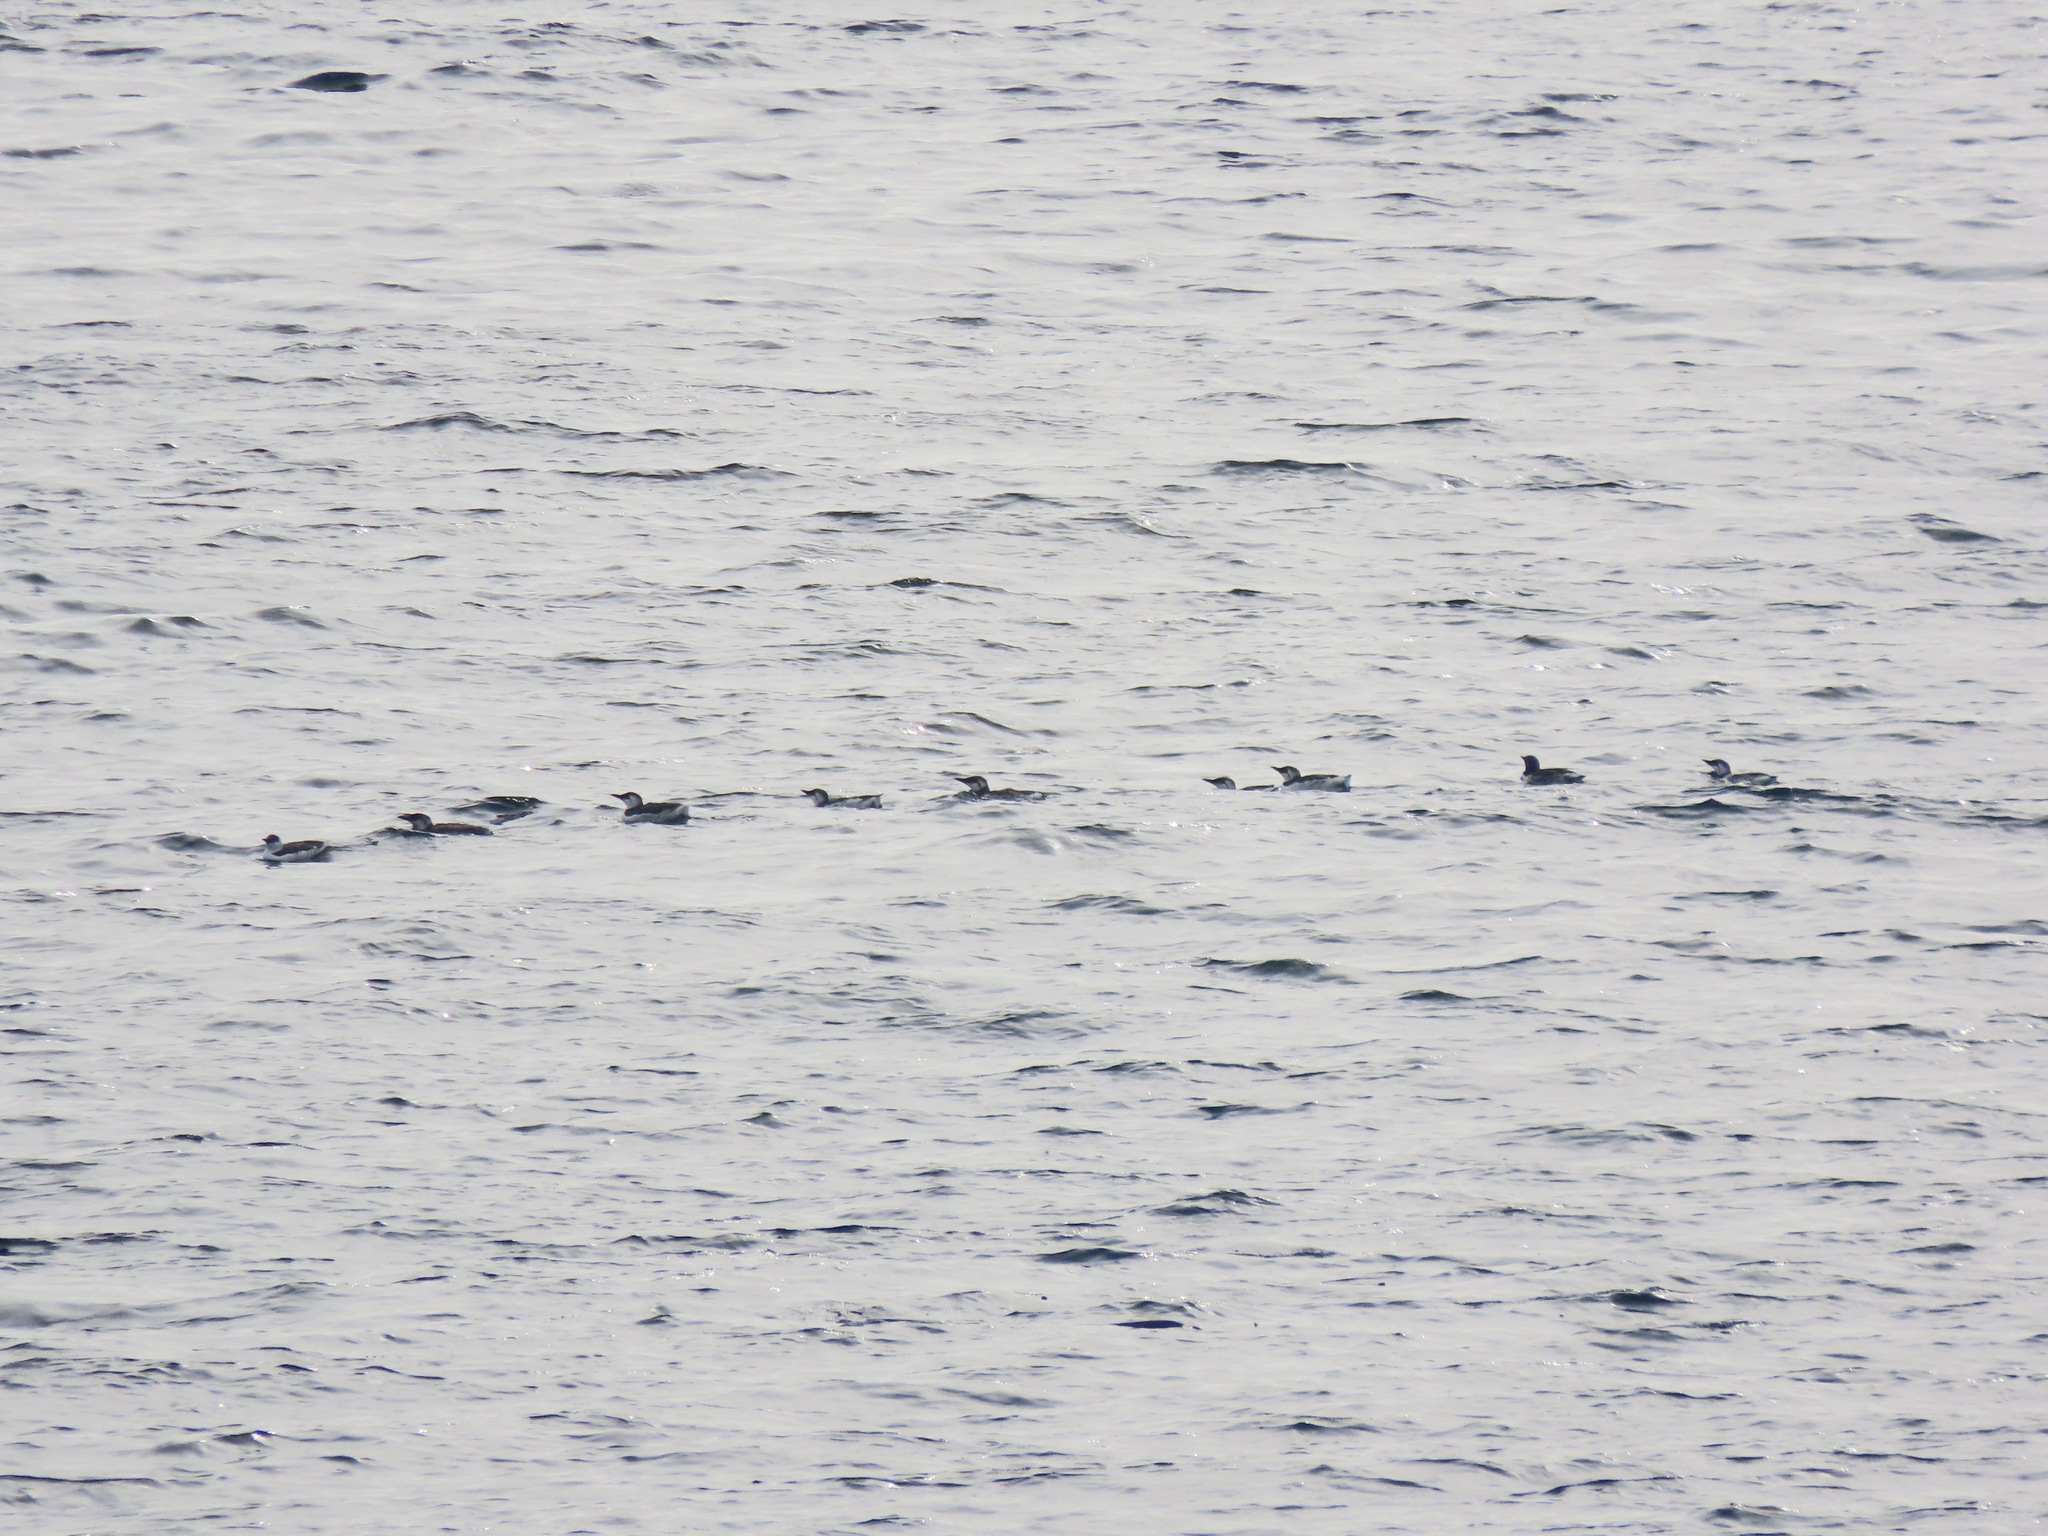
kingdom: Animalia
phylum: Chordata
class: Aves
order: Charadriiformes
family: Alcidae
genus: Uria
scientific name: Uria aalge
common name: Common murre
